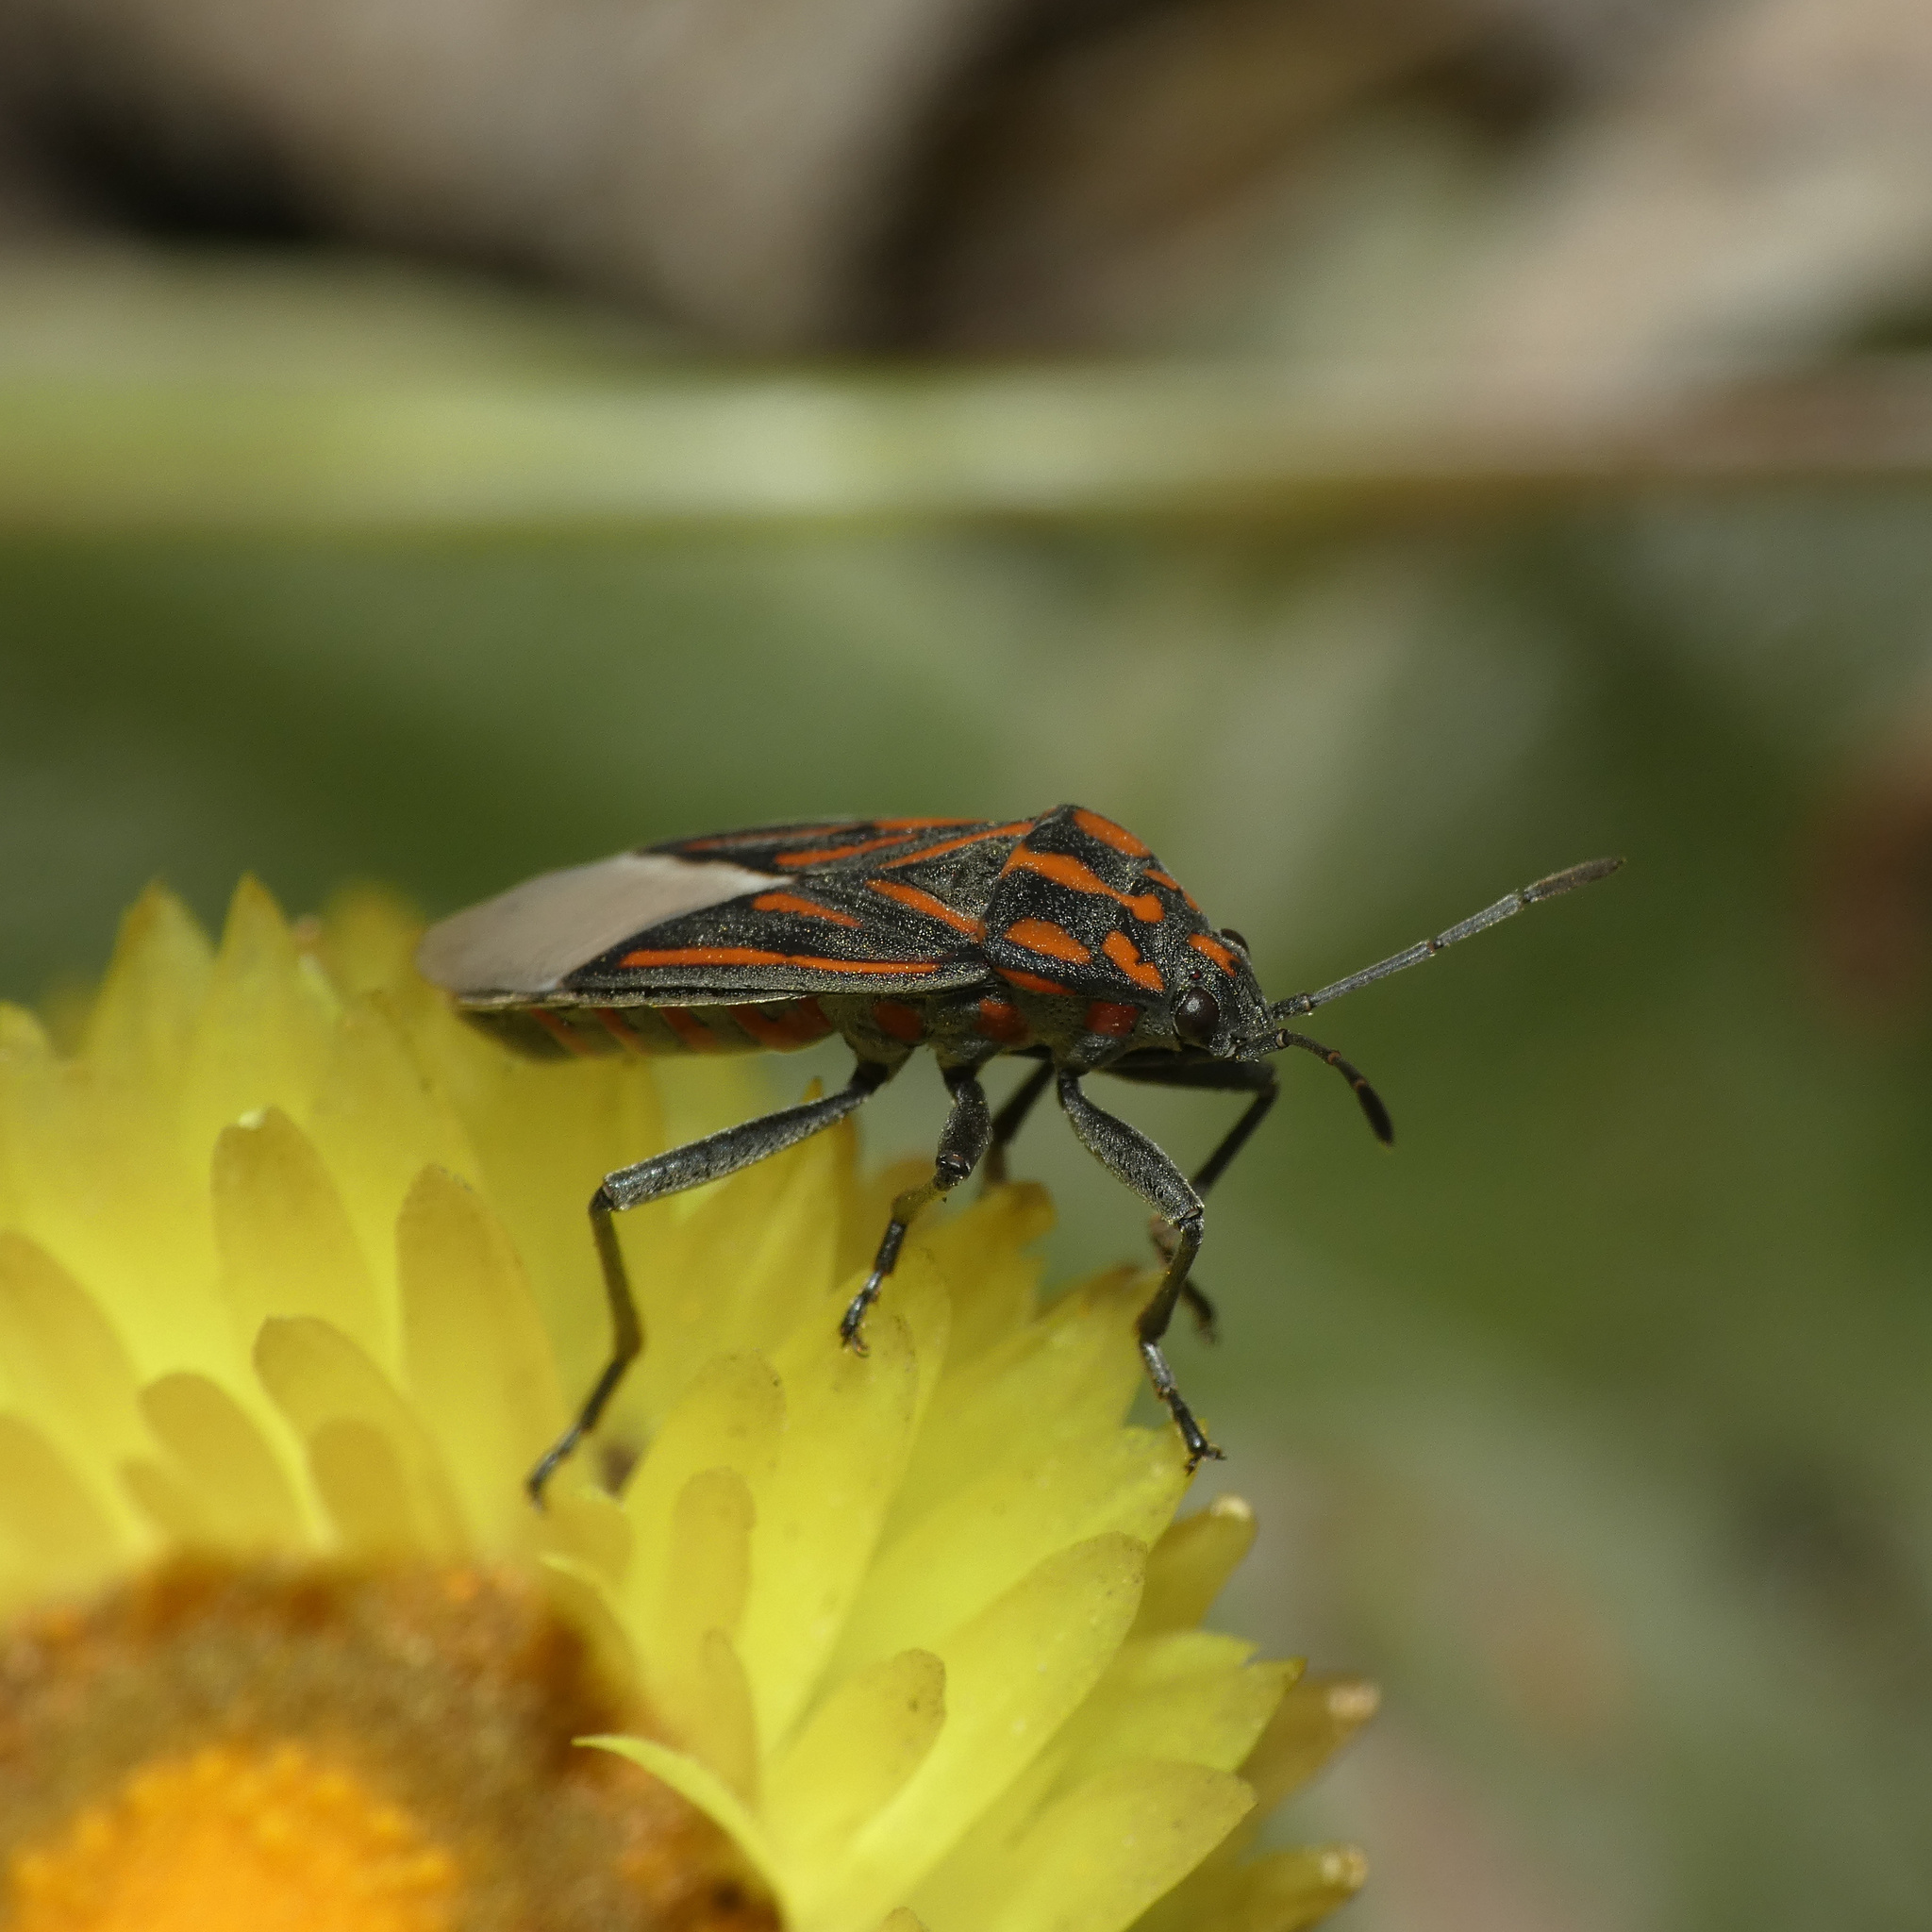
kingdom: Animalia
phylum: Arthropoda
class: Insecta
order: Hemiptera
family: Lygaeidae
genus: Spilostethus
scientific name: Spilostethus lemniscatus
